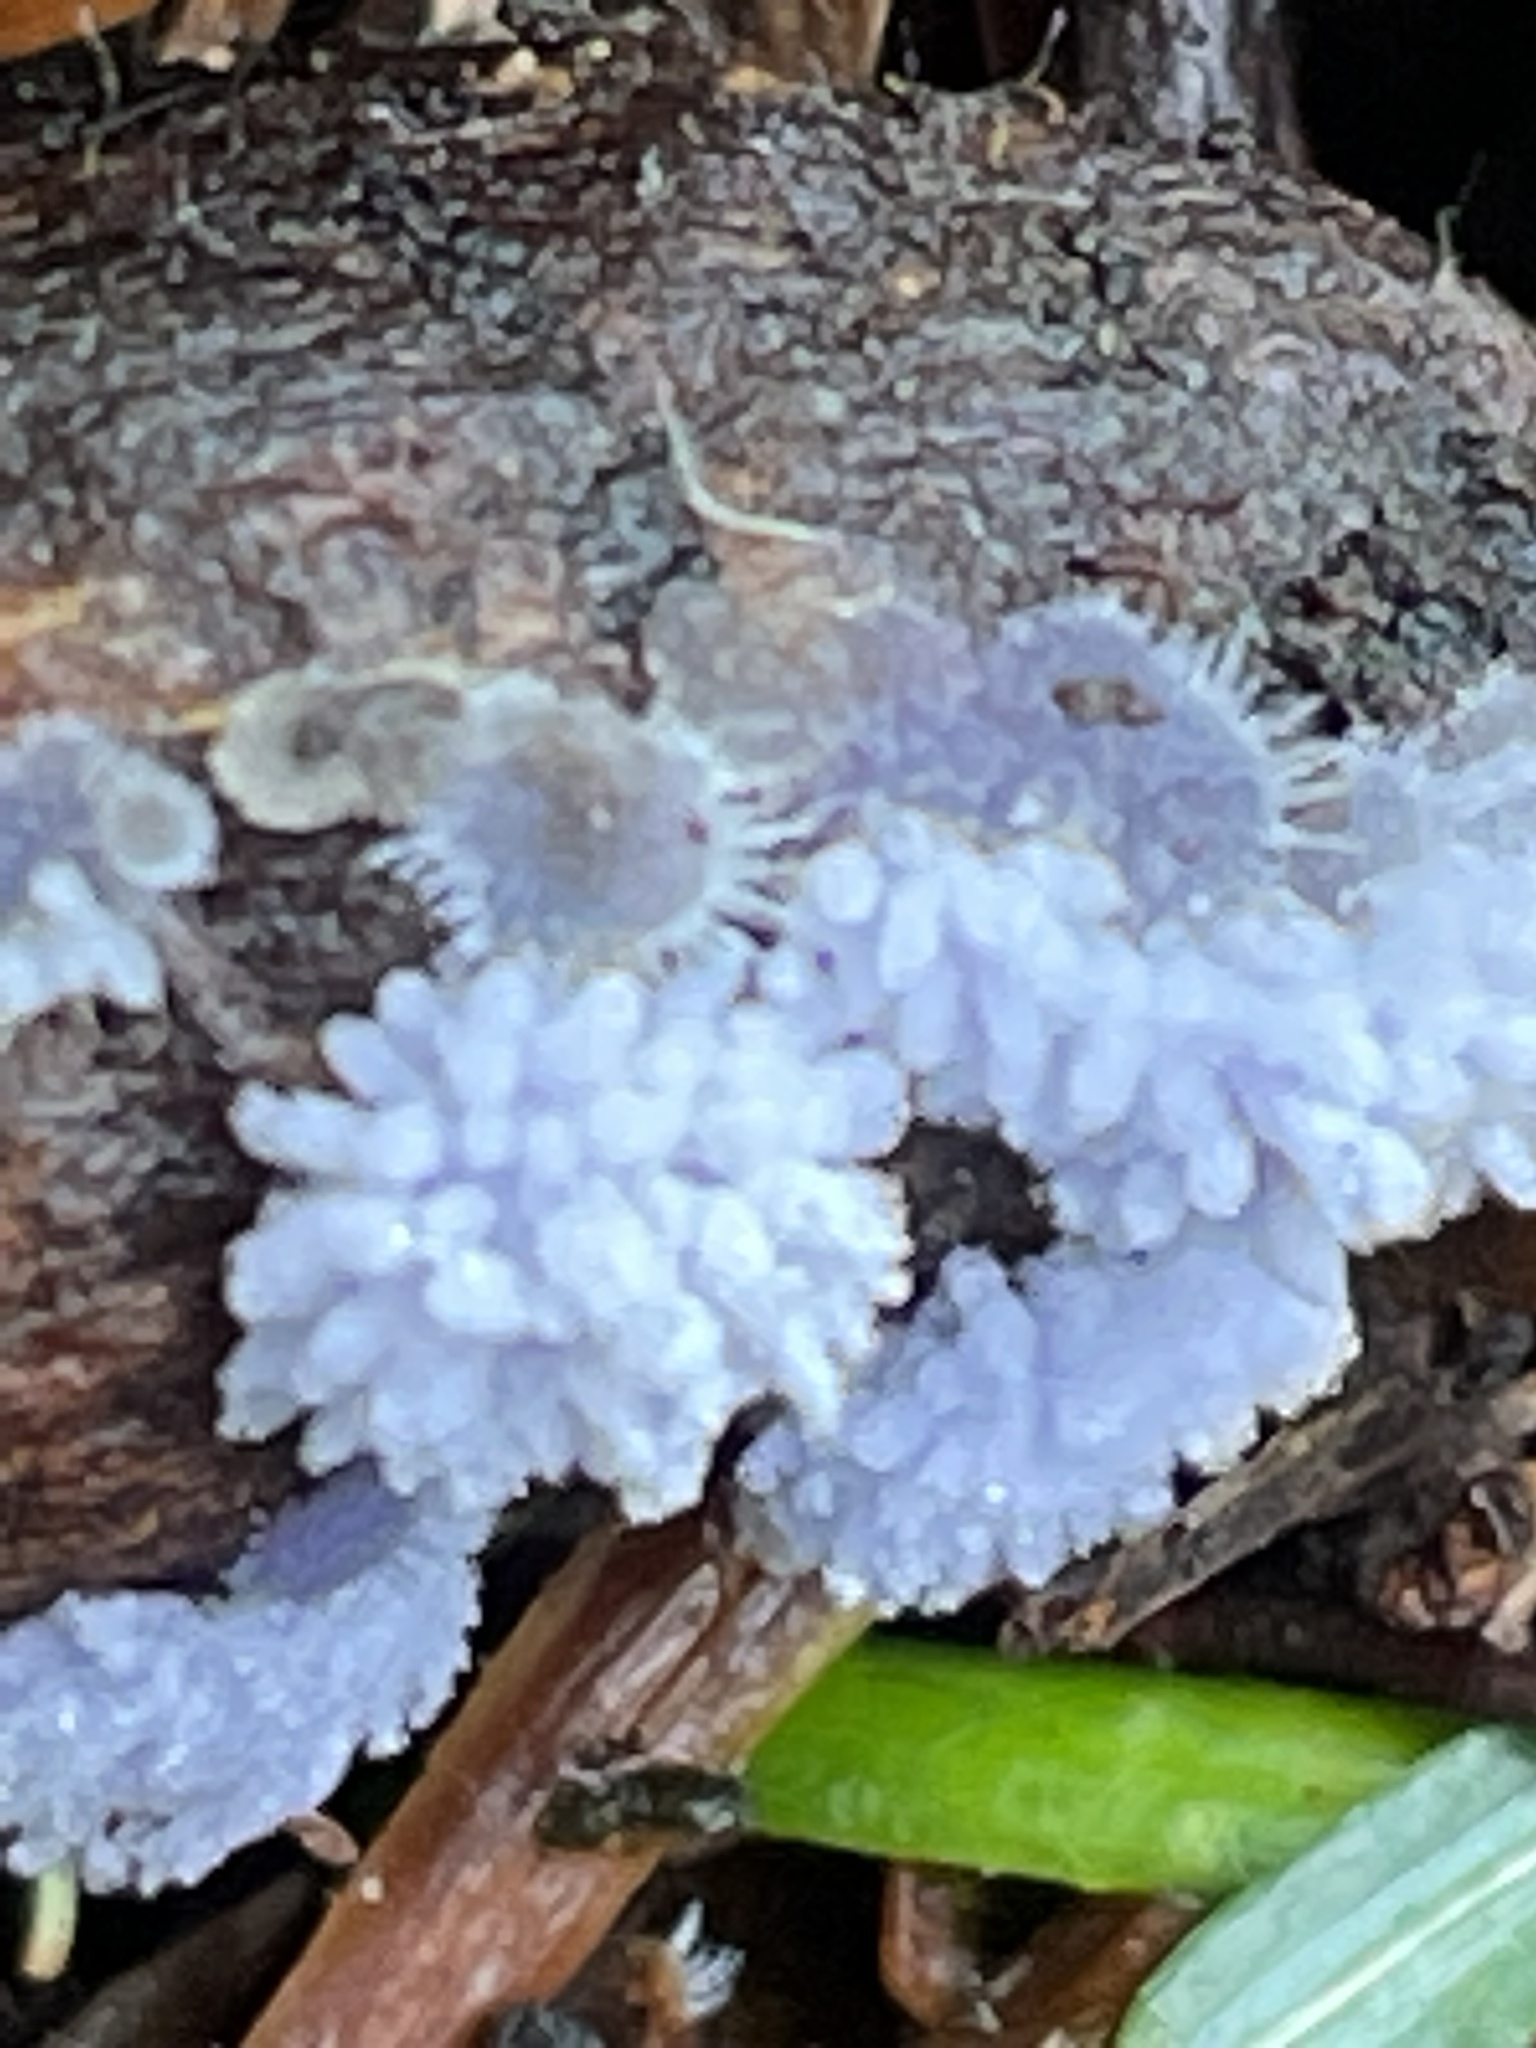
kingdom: Fungi
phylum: Ascomycota
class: Pezizomycetes
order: Pezizales
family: Pezizaceae
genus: Chromelosporiopsis
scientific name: Chromelosporiopsis coerulescens
